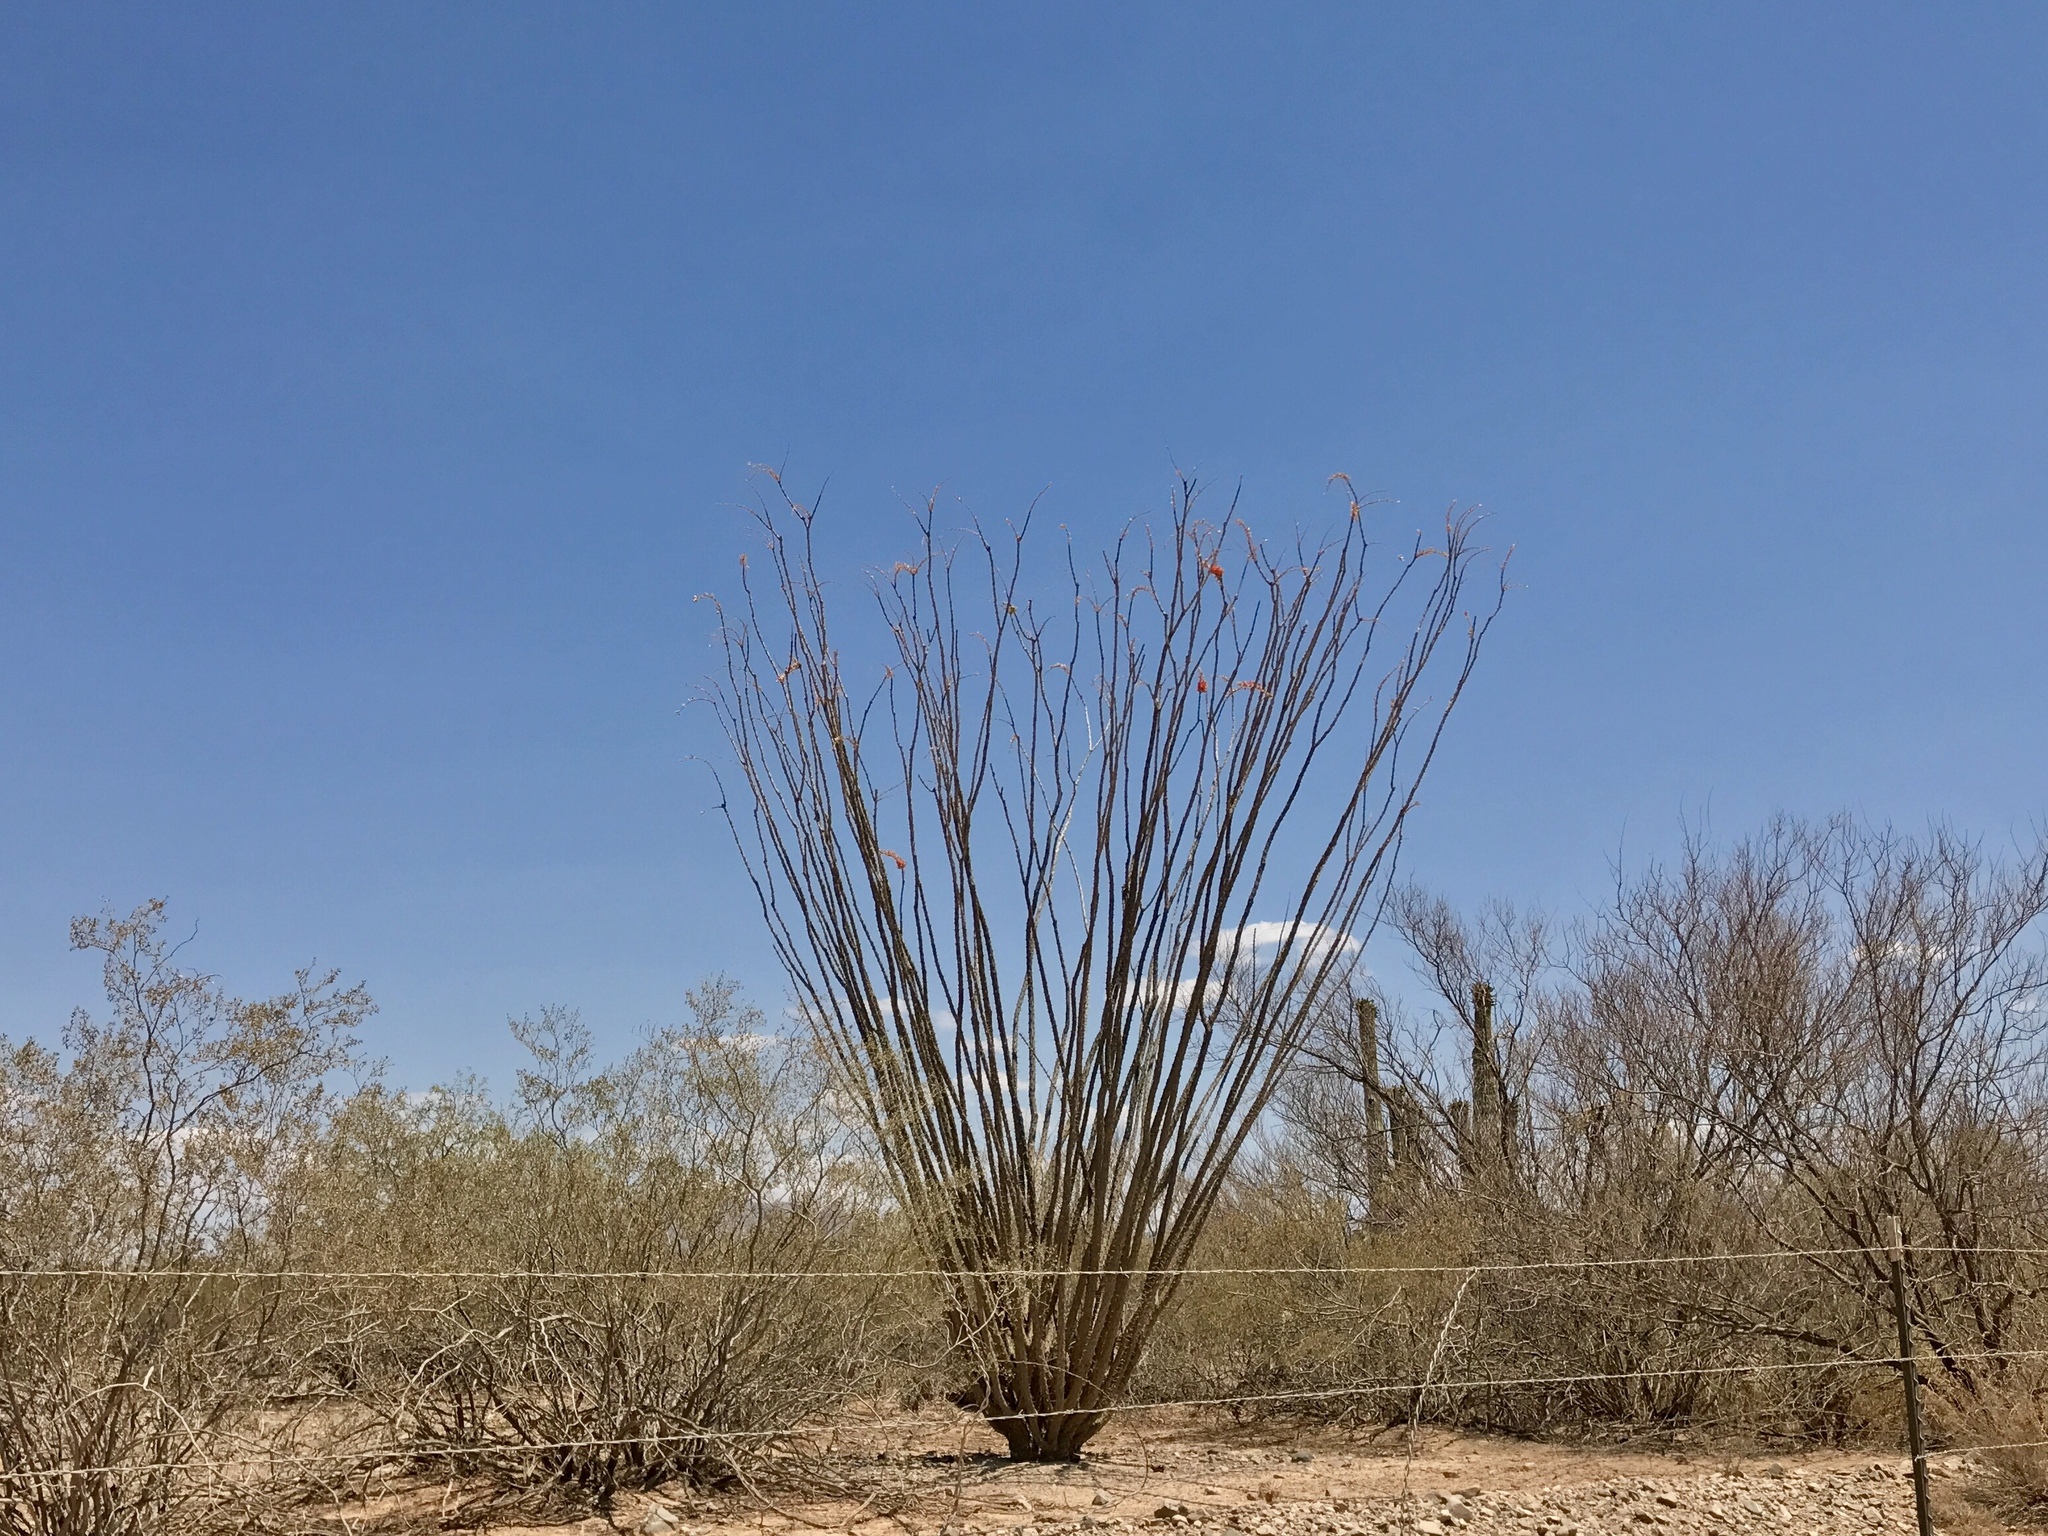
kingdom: Plantae
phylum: Tracheophyta
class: Magnoliopsida
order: Ericales
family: Fouquieriaceae
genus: Fouquieria
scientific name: Fouquieria splendens
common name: Vine-cactus
